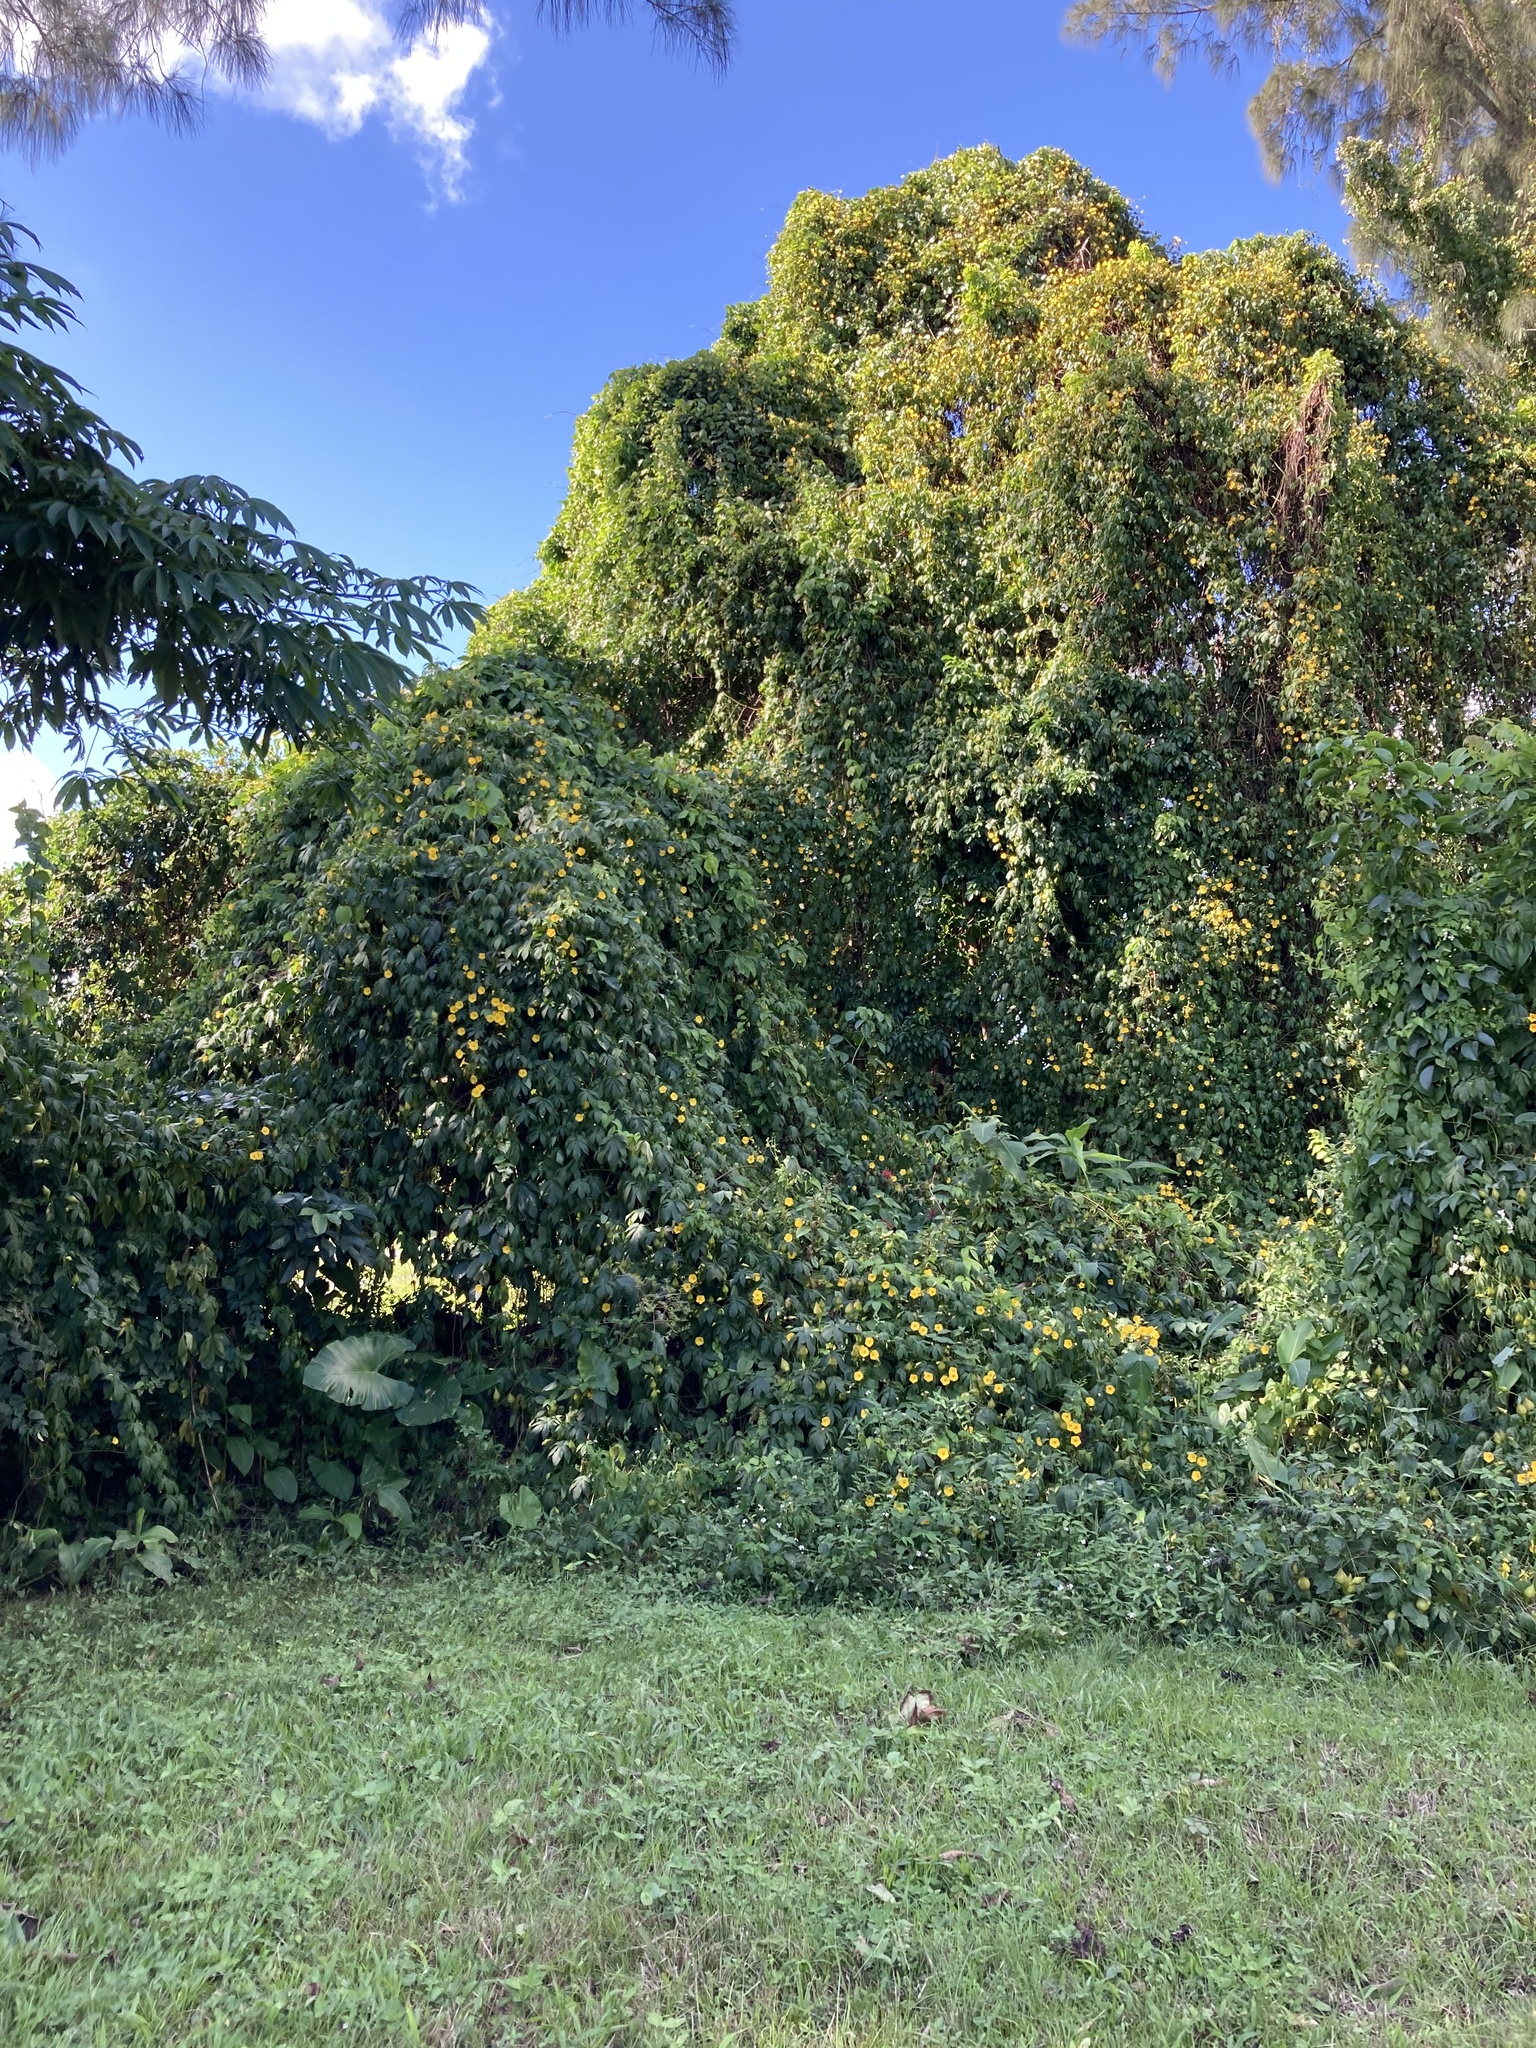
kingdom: Plantae
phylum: Tracheophyta
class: Magnoliopsida
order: Solanales
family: Convolvulaceae
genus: Distimake
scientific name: Distimake tuberosus
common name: Spanish arborvine
